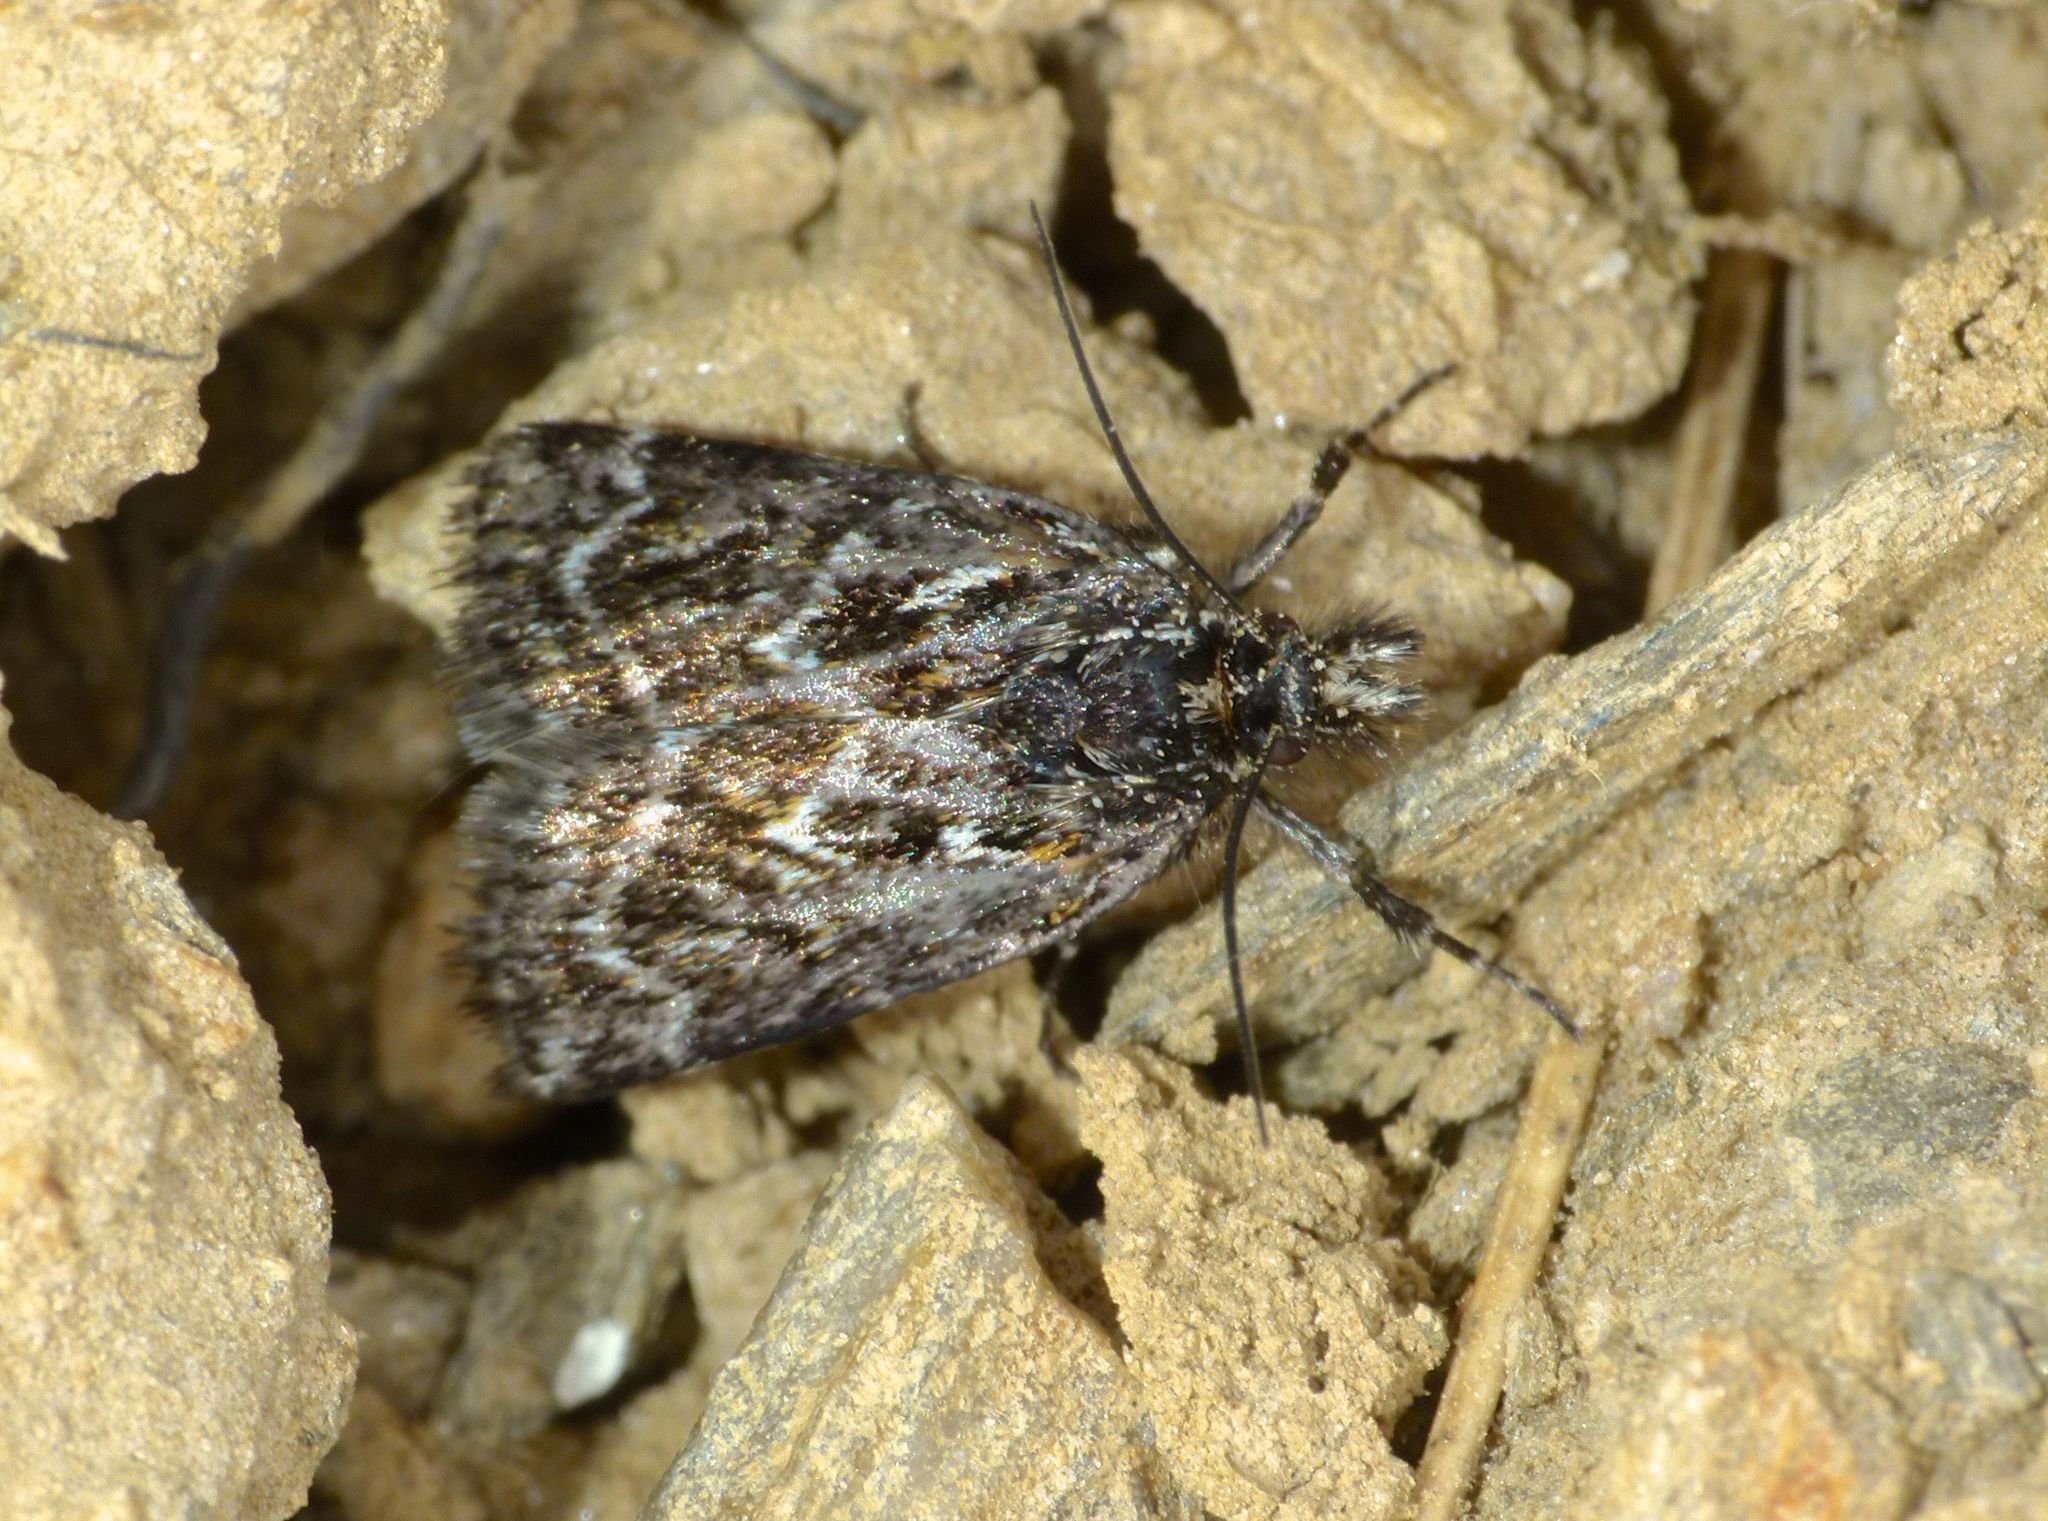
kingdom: Animalia
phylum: Arthropoda
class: Insecta
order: Lepidoptera
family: Crambidae
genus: Tauroscopa
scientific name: Tauroscopa trapezitis
